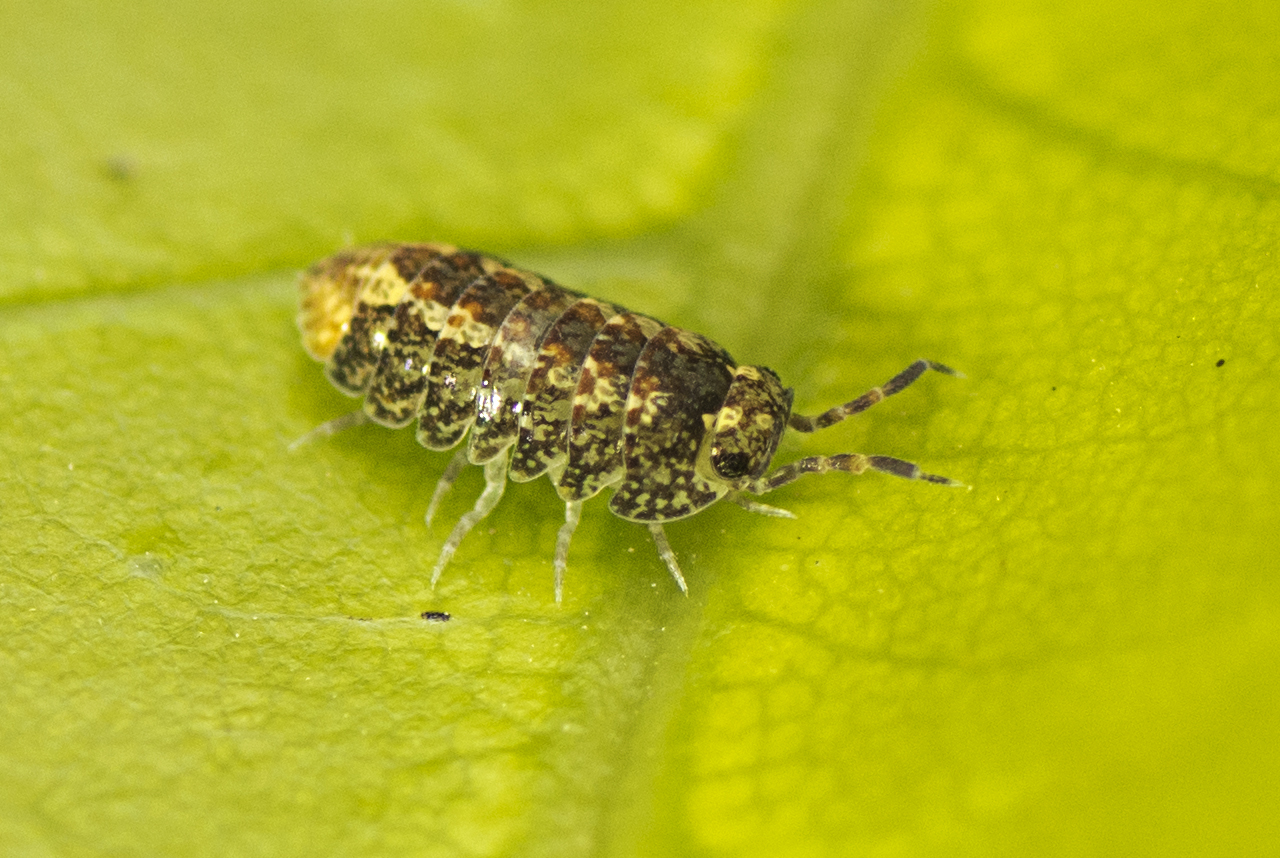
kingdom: Animalia
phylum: Arthropoda
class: Malacostraca
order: Isopoda
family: Armadillidae
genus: Cubaris
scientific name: Cubaris marmorata
